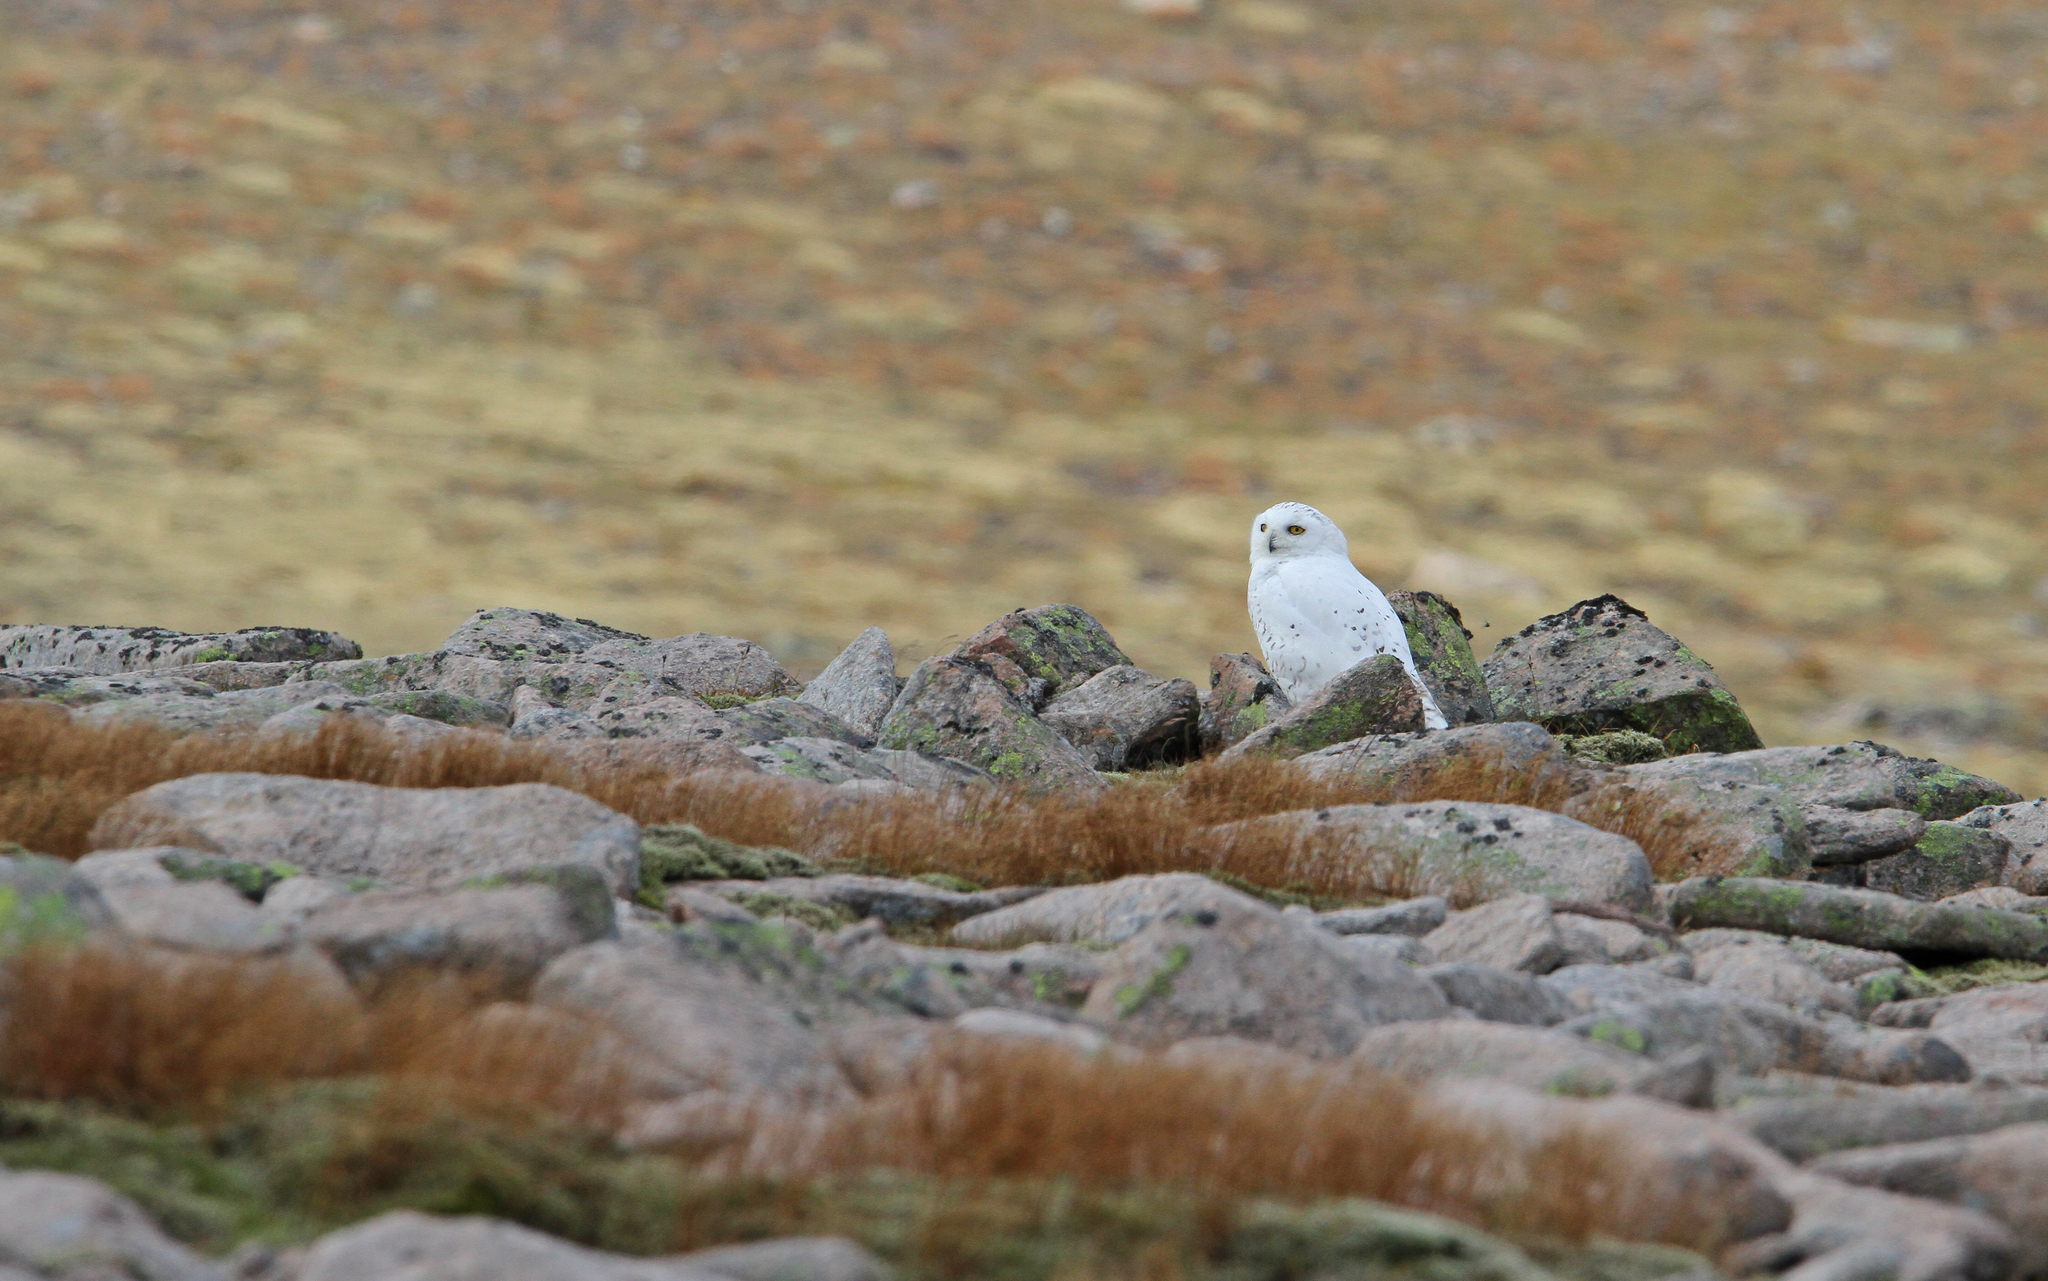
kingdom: Animalia
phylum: Chordata
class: Aves
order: Strigiformes
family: Strigidae
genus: Bubo
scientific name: Bubo scandiacus
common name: Snowy owl
